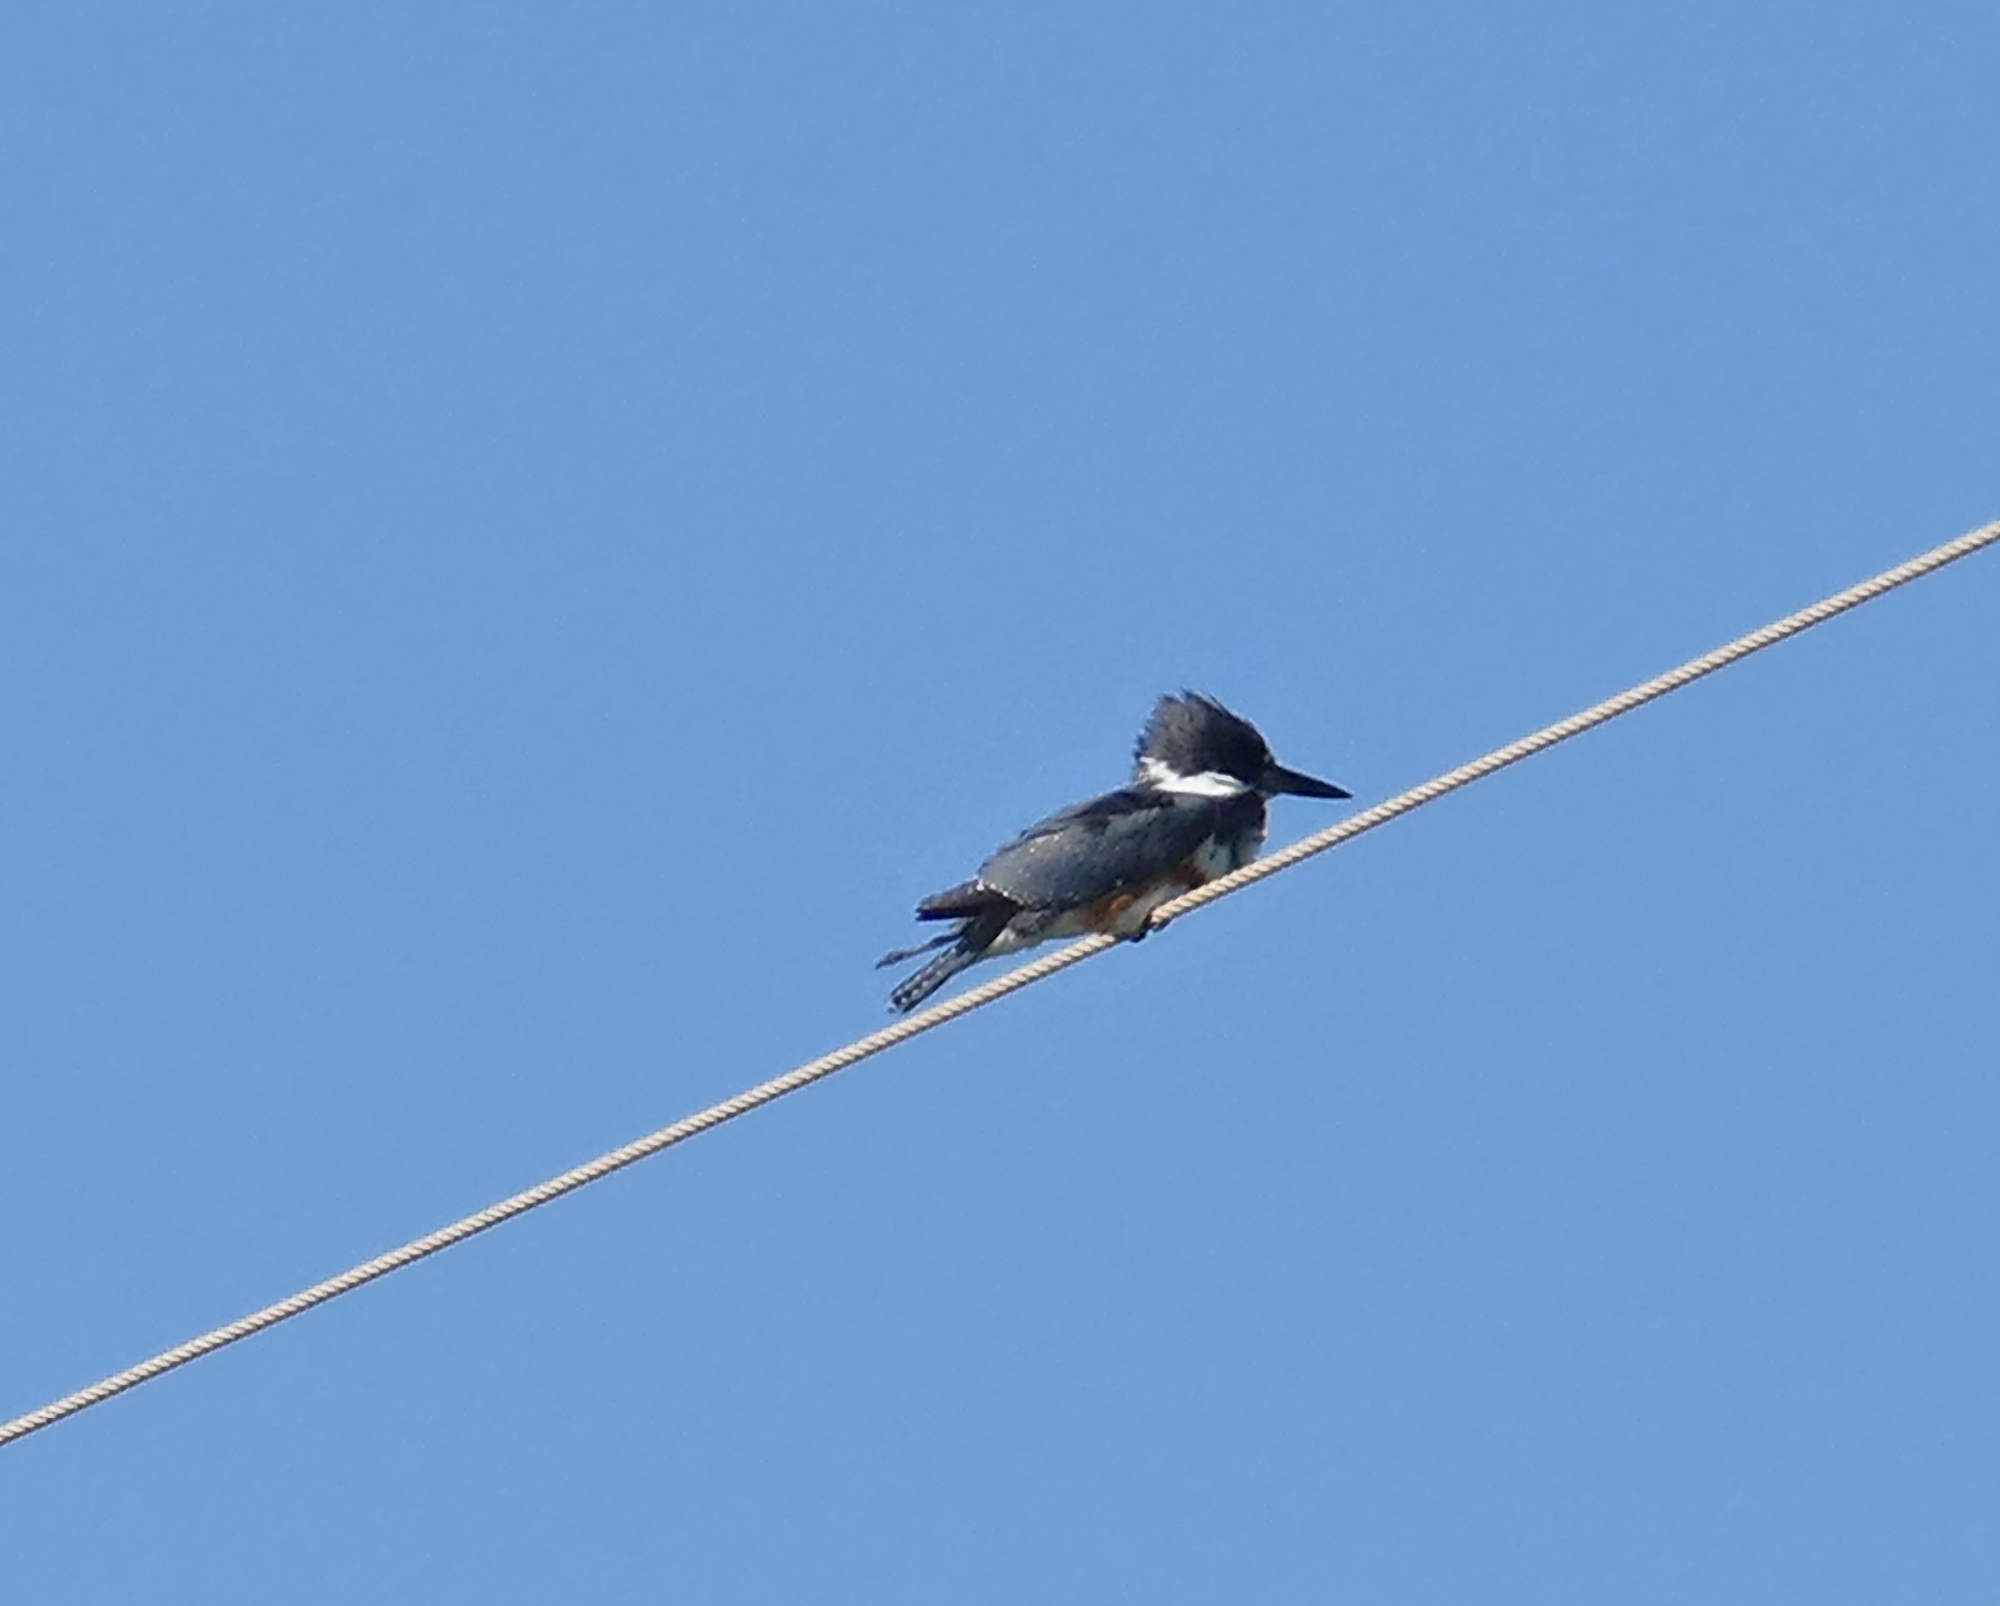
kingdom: Animalia
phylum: Chordata
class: Aves
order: Coraciiformes
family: Alcedinidae
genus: Megaceryle
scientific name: Megaceryle alcyon
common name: Belted kingfisher
